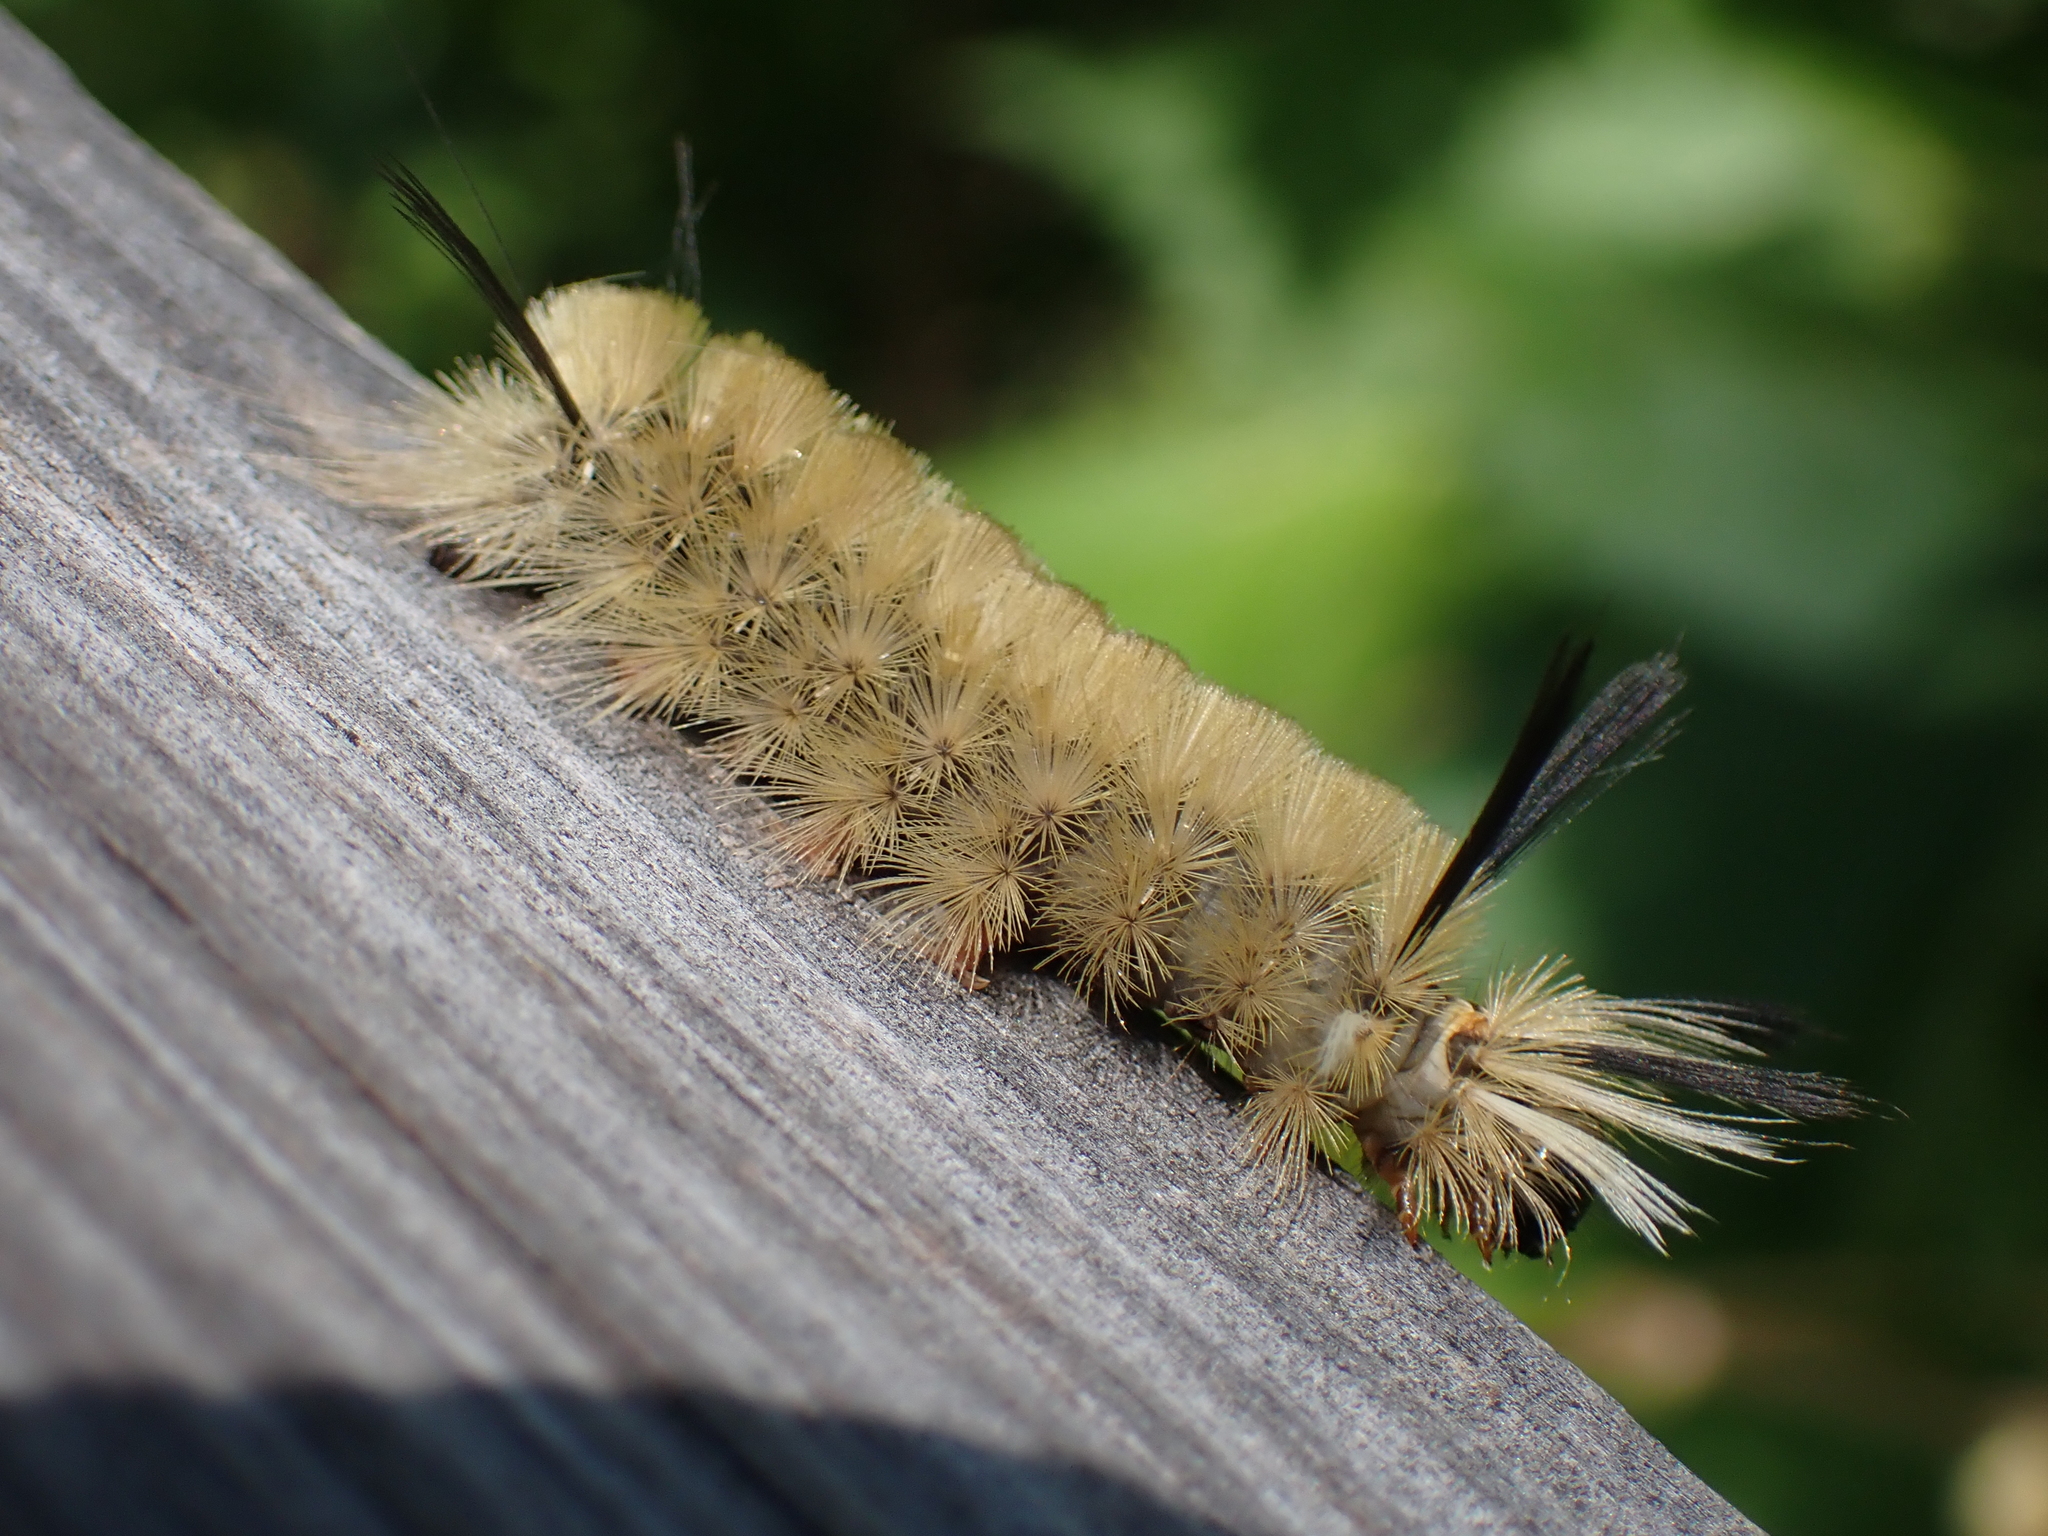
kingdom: Animalia
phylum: Arthropoda
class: Insecta
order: Lepidoptera
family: Erebidae
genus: Halysidota
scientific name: Halysidota tessellaris
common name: Banded tussock moth
